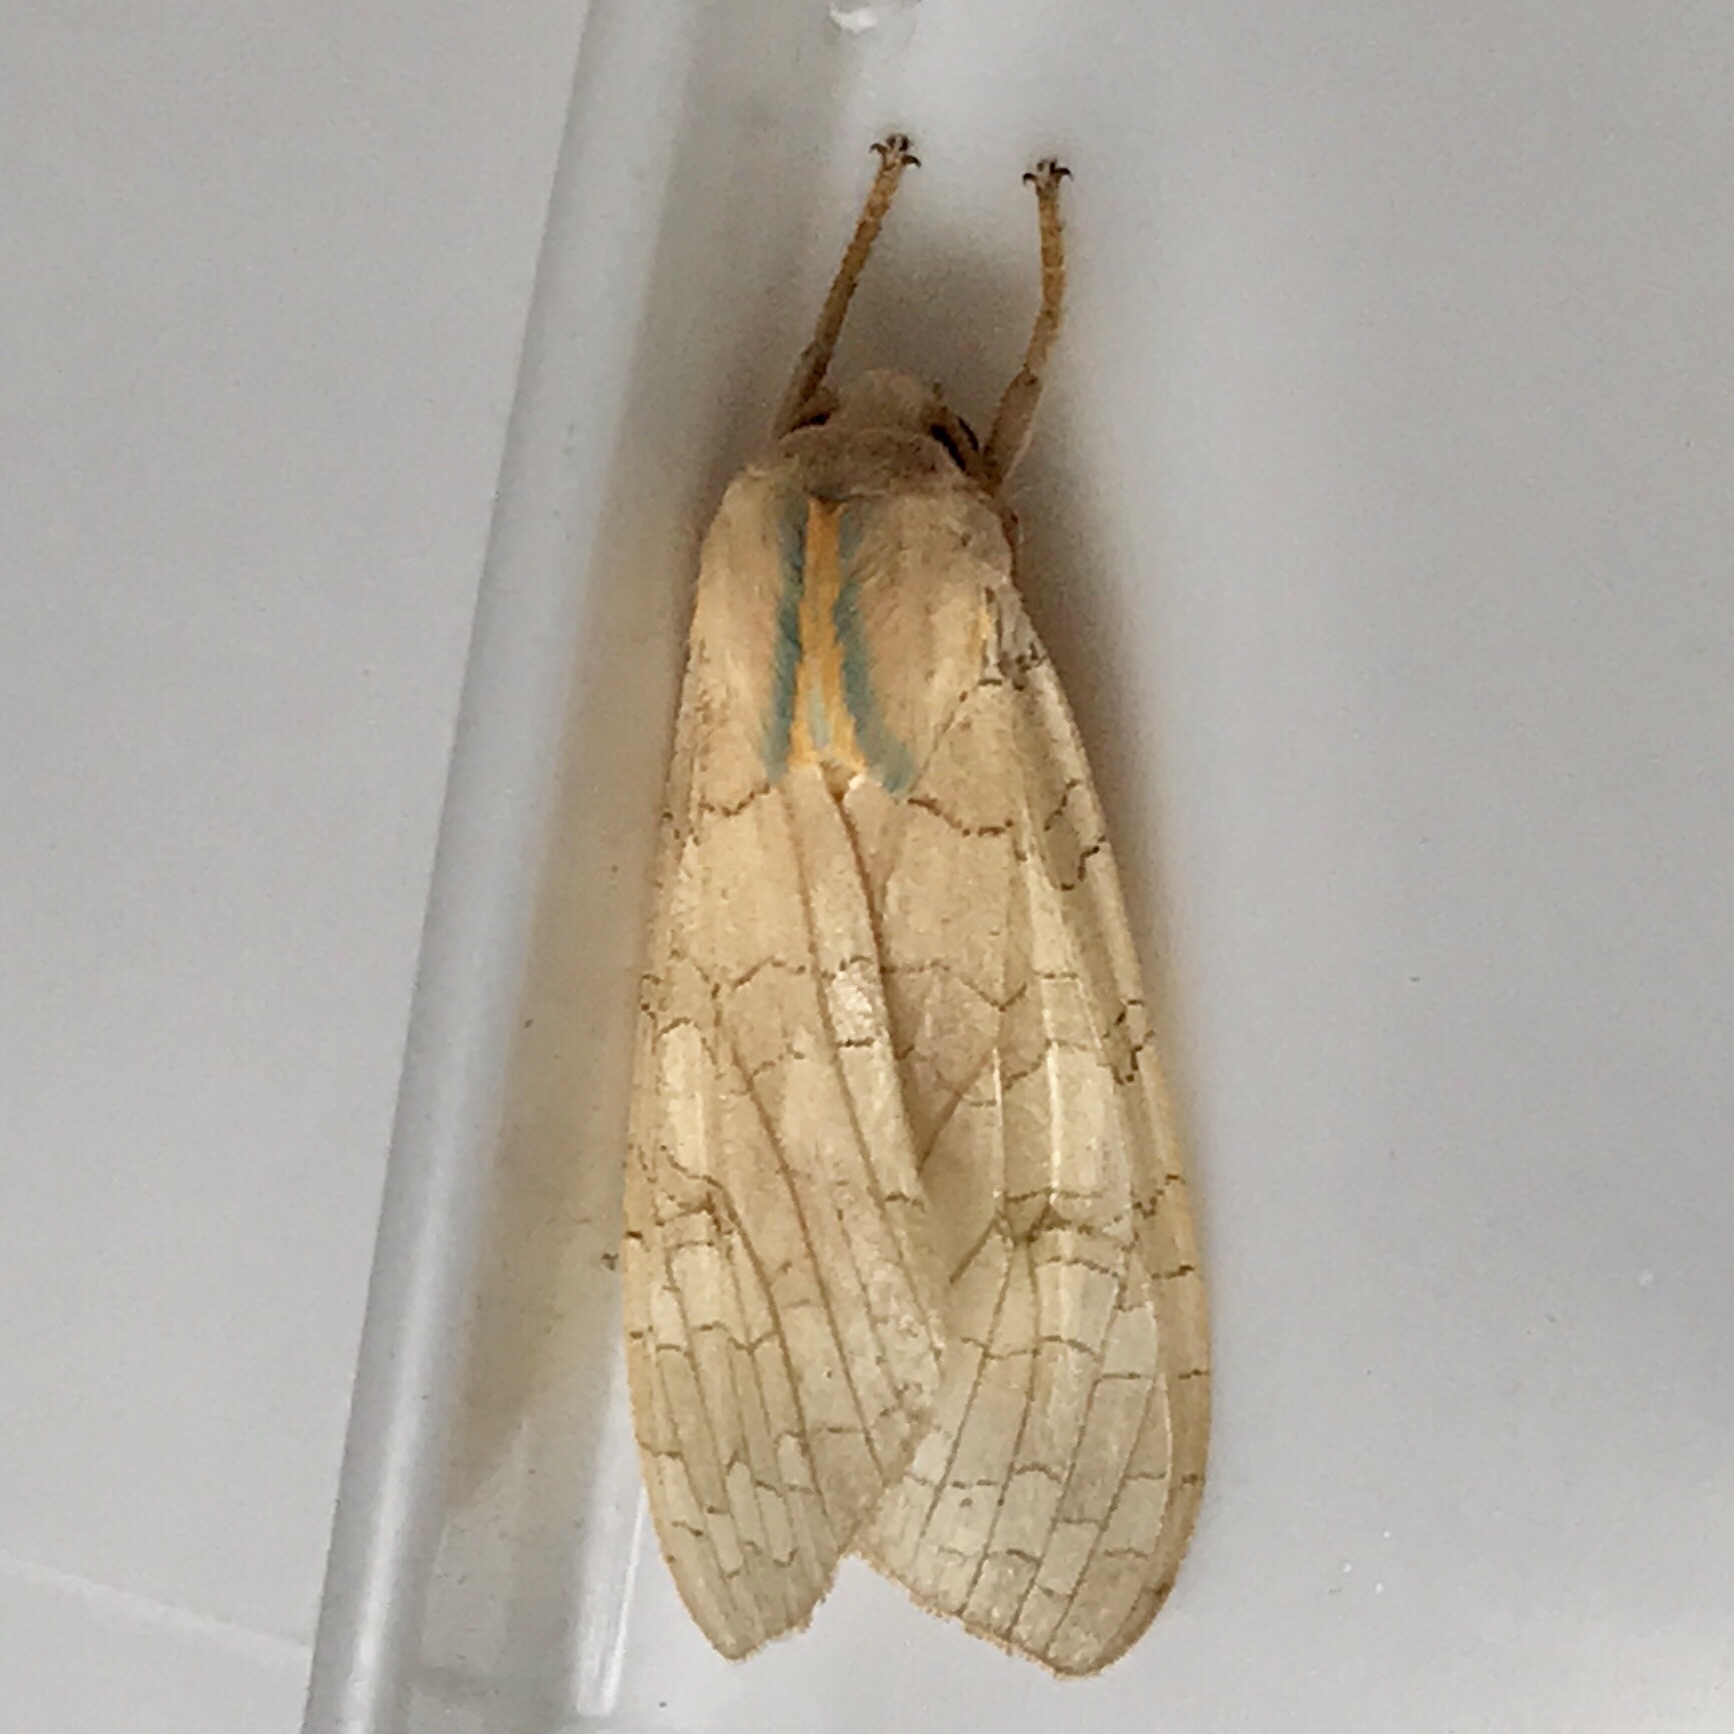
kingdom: Animalia
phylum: Arthropoda
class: Insecta
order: Lepidoptera
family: Erebidae
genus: Halysidota
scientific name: Halysidota
